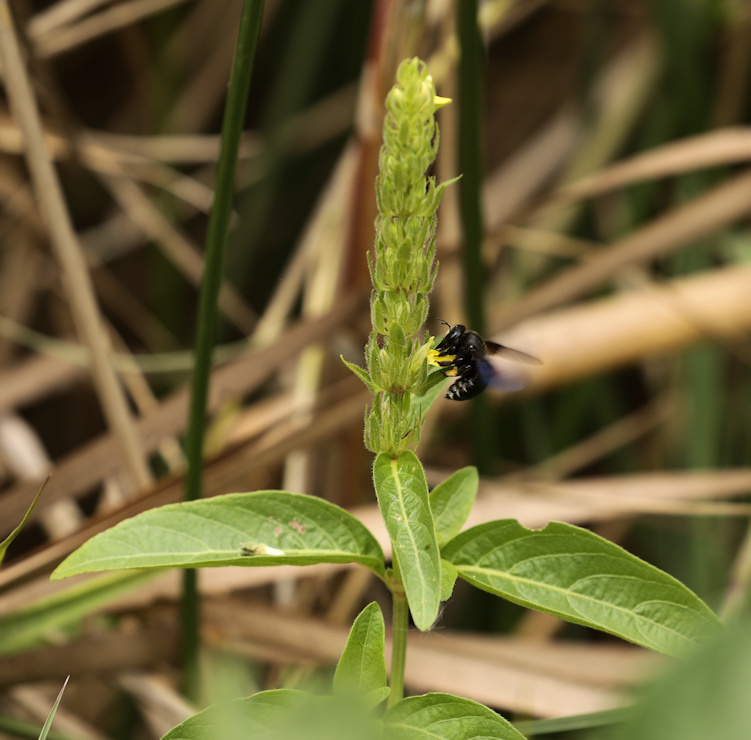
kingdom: Plantae
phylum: Tracheophyta
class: Magnoliopsida
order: Lamiales
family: Acanthaceae
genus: Justicia
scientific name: Justicia flava
